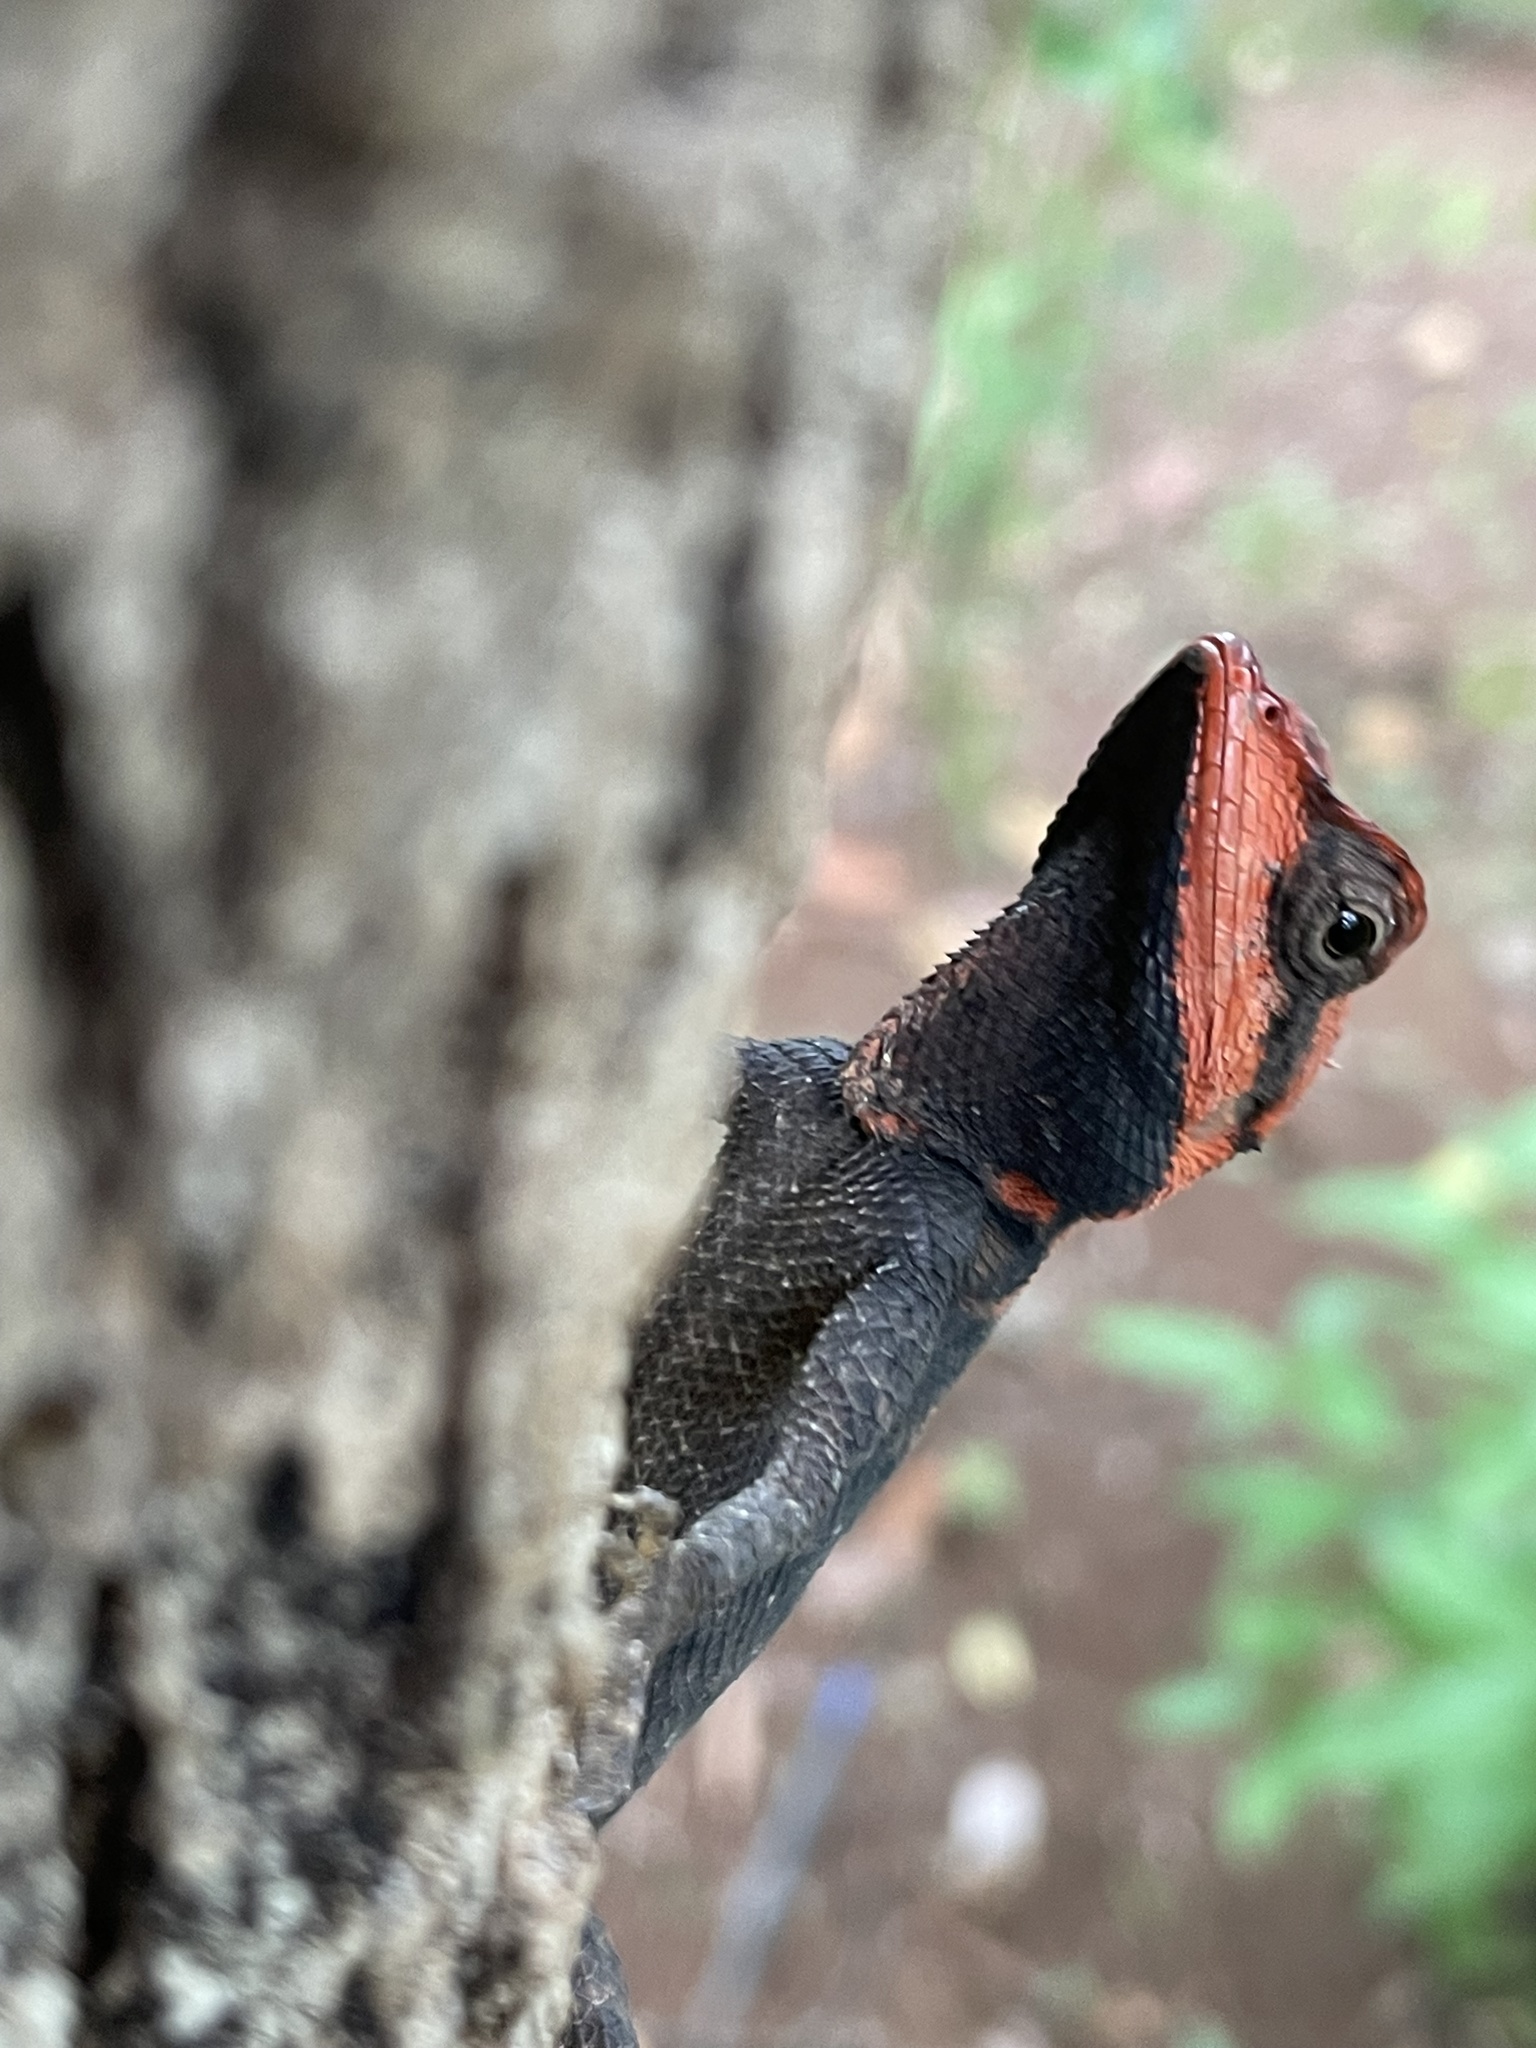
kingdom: Animalia
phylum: Chordata
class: Squamata
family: Agamidae
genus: Monilesaurus
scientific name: Monilesaurus rouxii
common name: Roux's forest lizard
